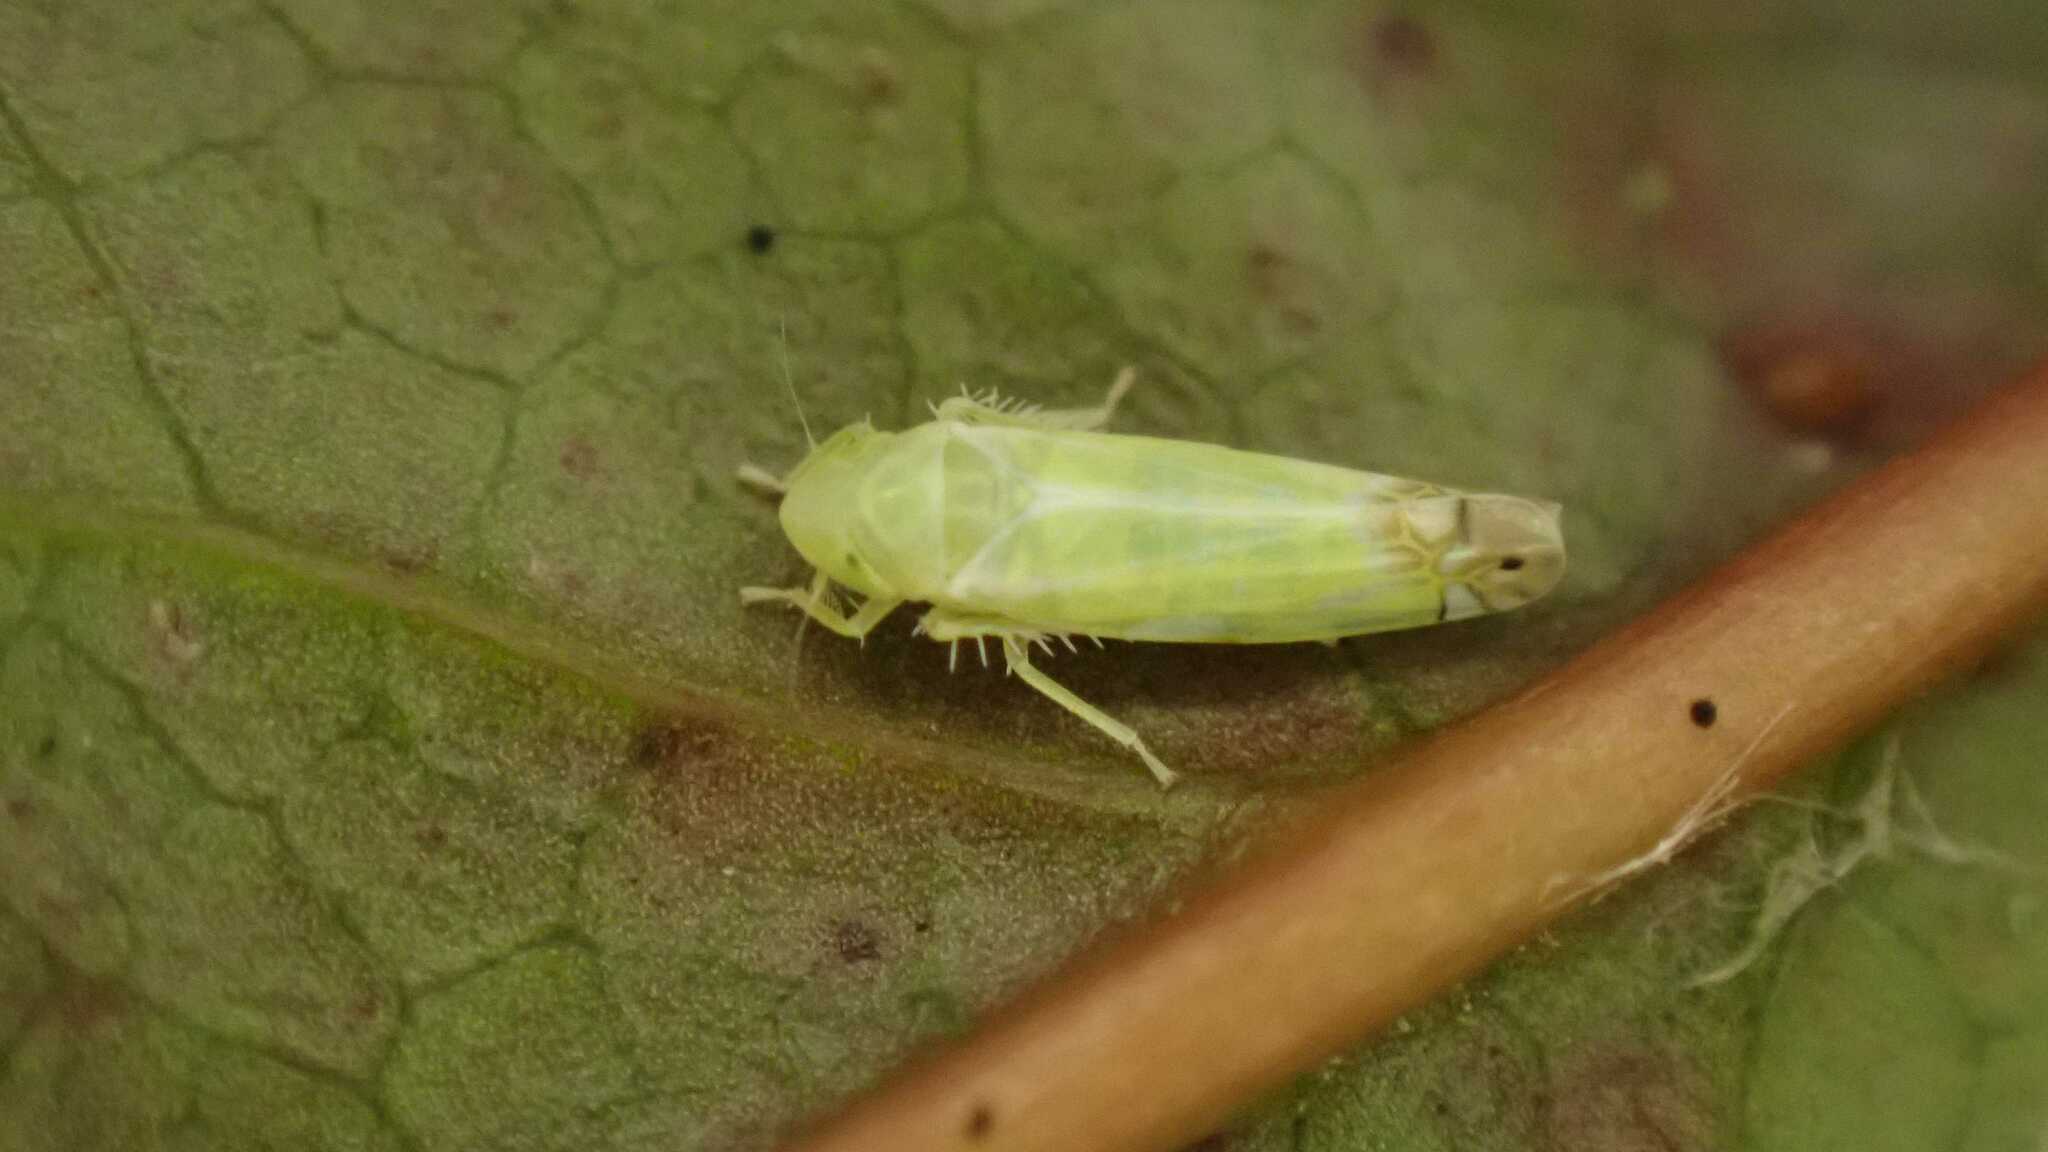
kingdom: Animalia
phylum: Arthropoda
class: Insecta
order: Hemiptera
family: Cicadellidae
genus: Zyginella
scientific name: Zyginella pulchra
